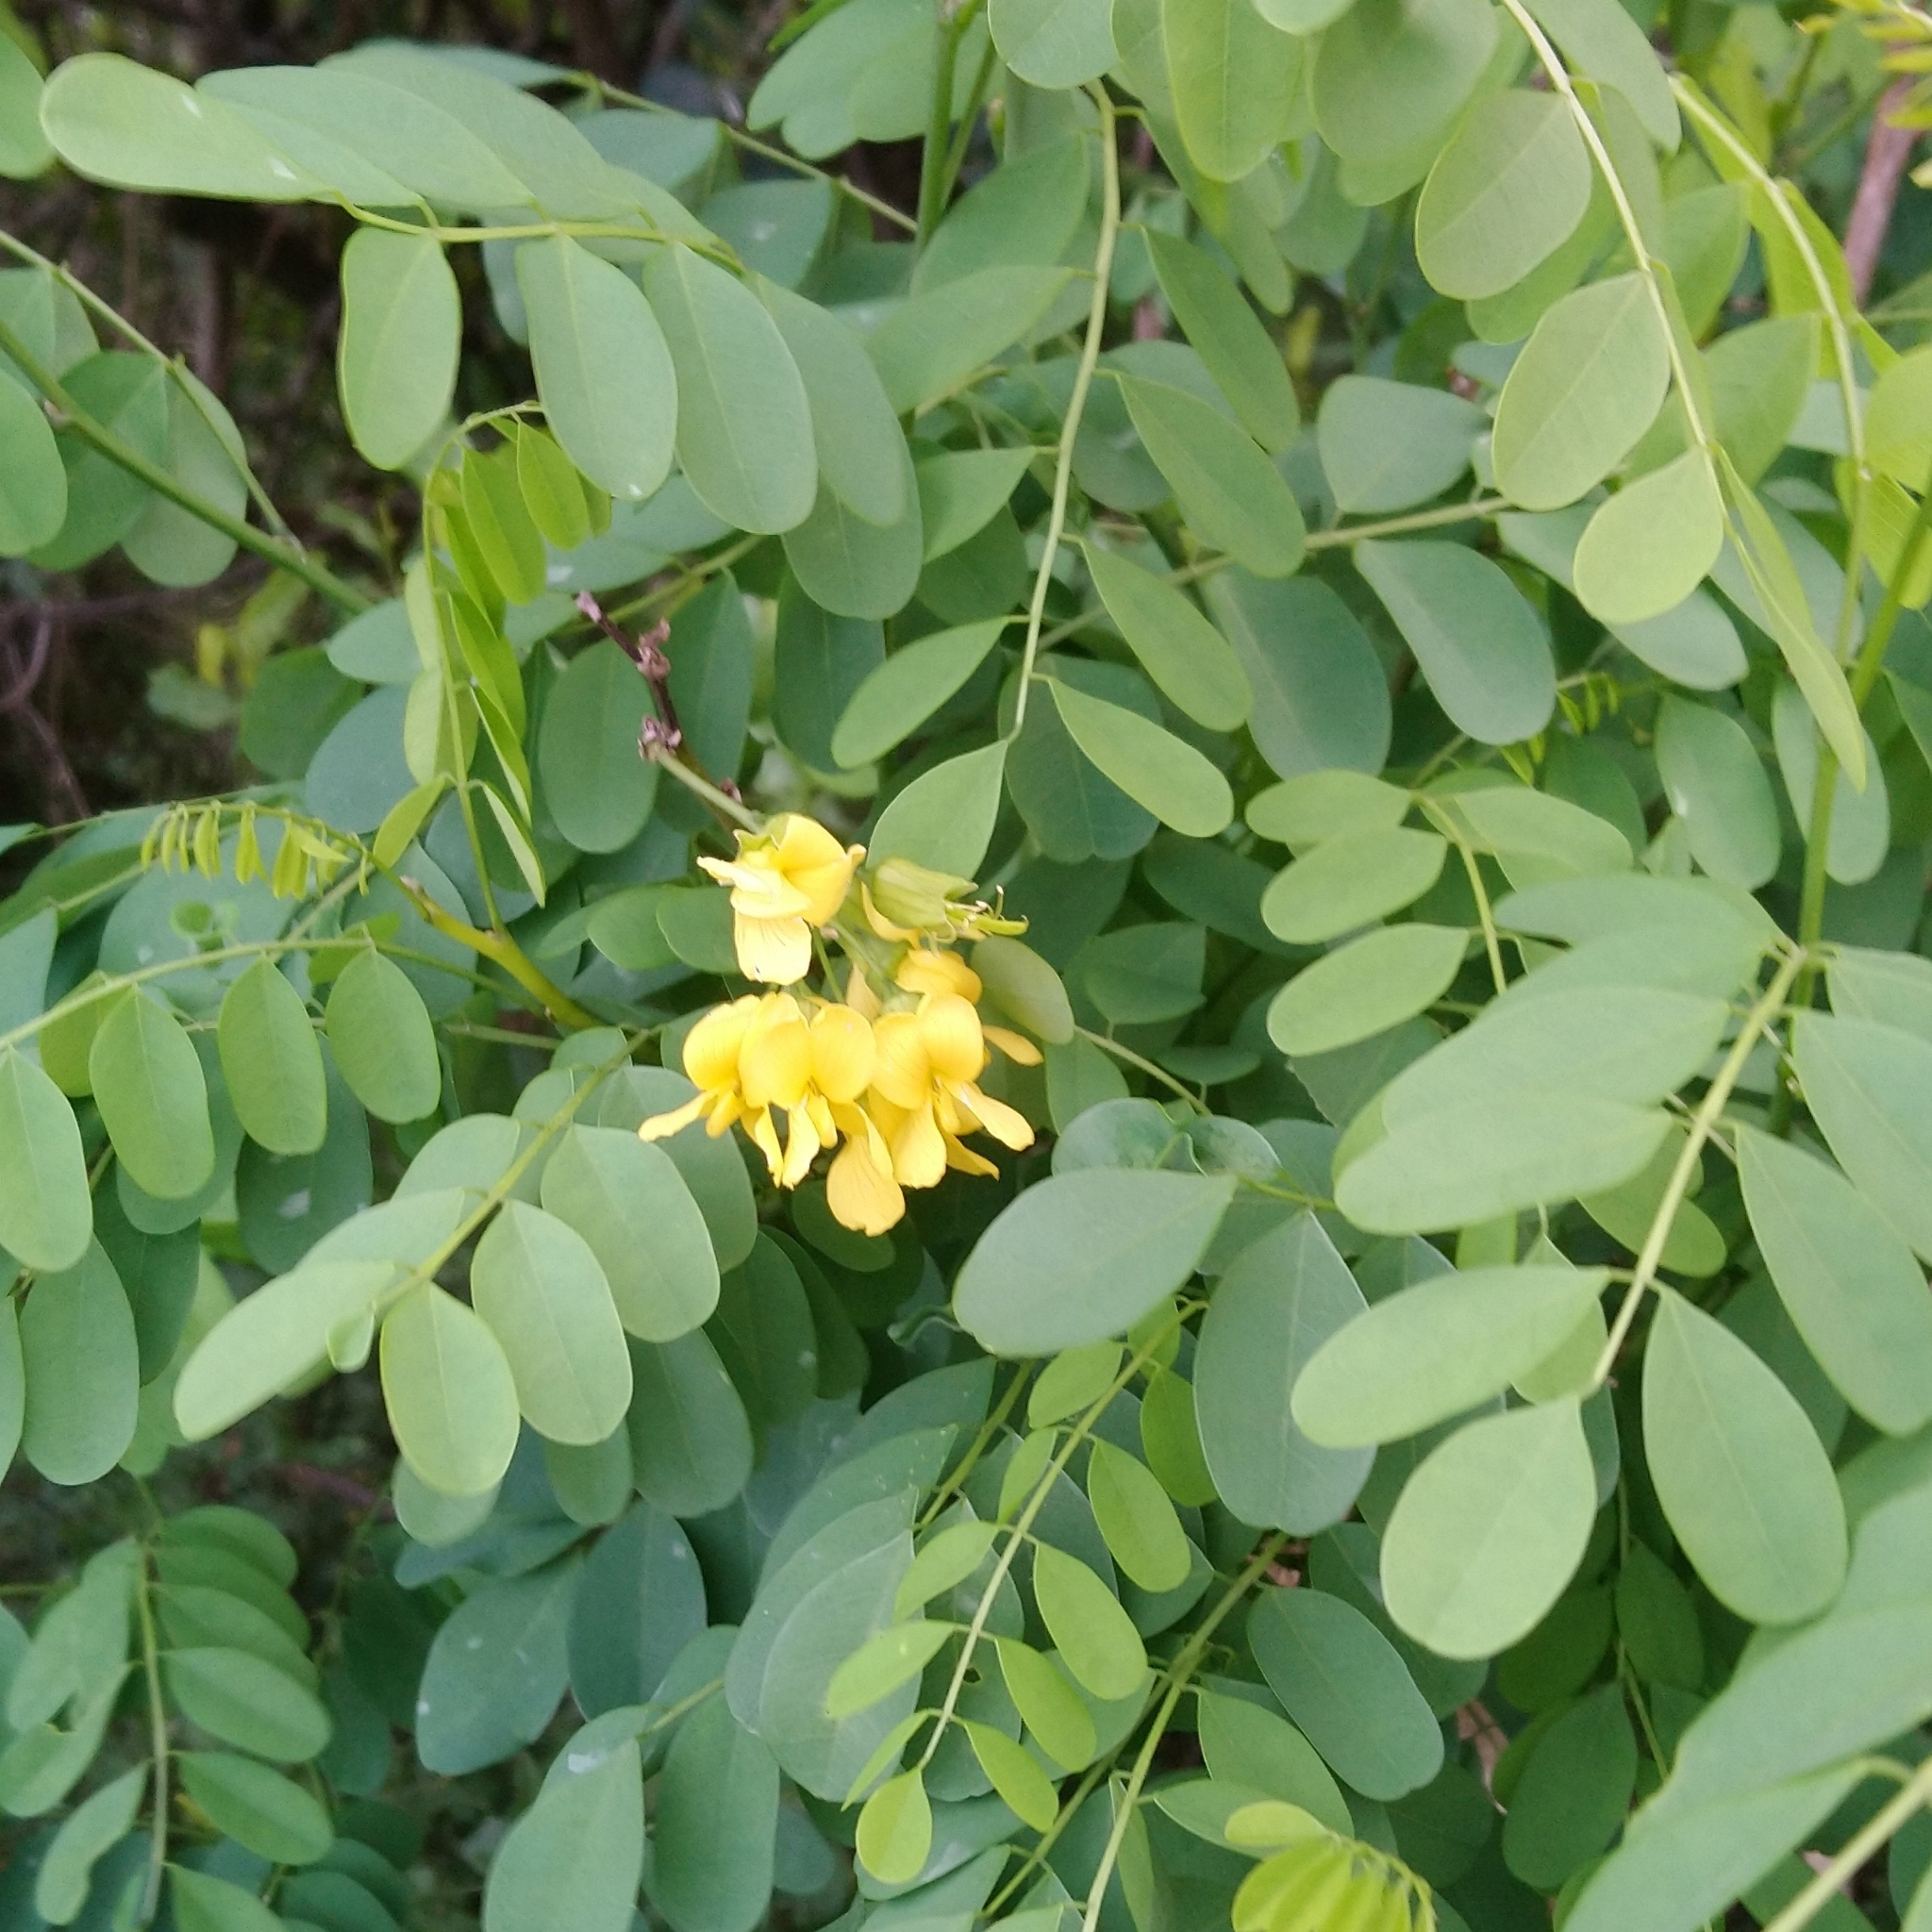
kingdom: Plantae
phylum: Tracheophyta
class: Magnoliopsida
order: Fabales
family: Fabaceae
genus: Calpurnia
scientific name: Calpurnia aurea
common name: Wild laburnum
